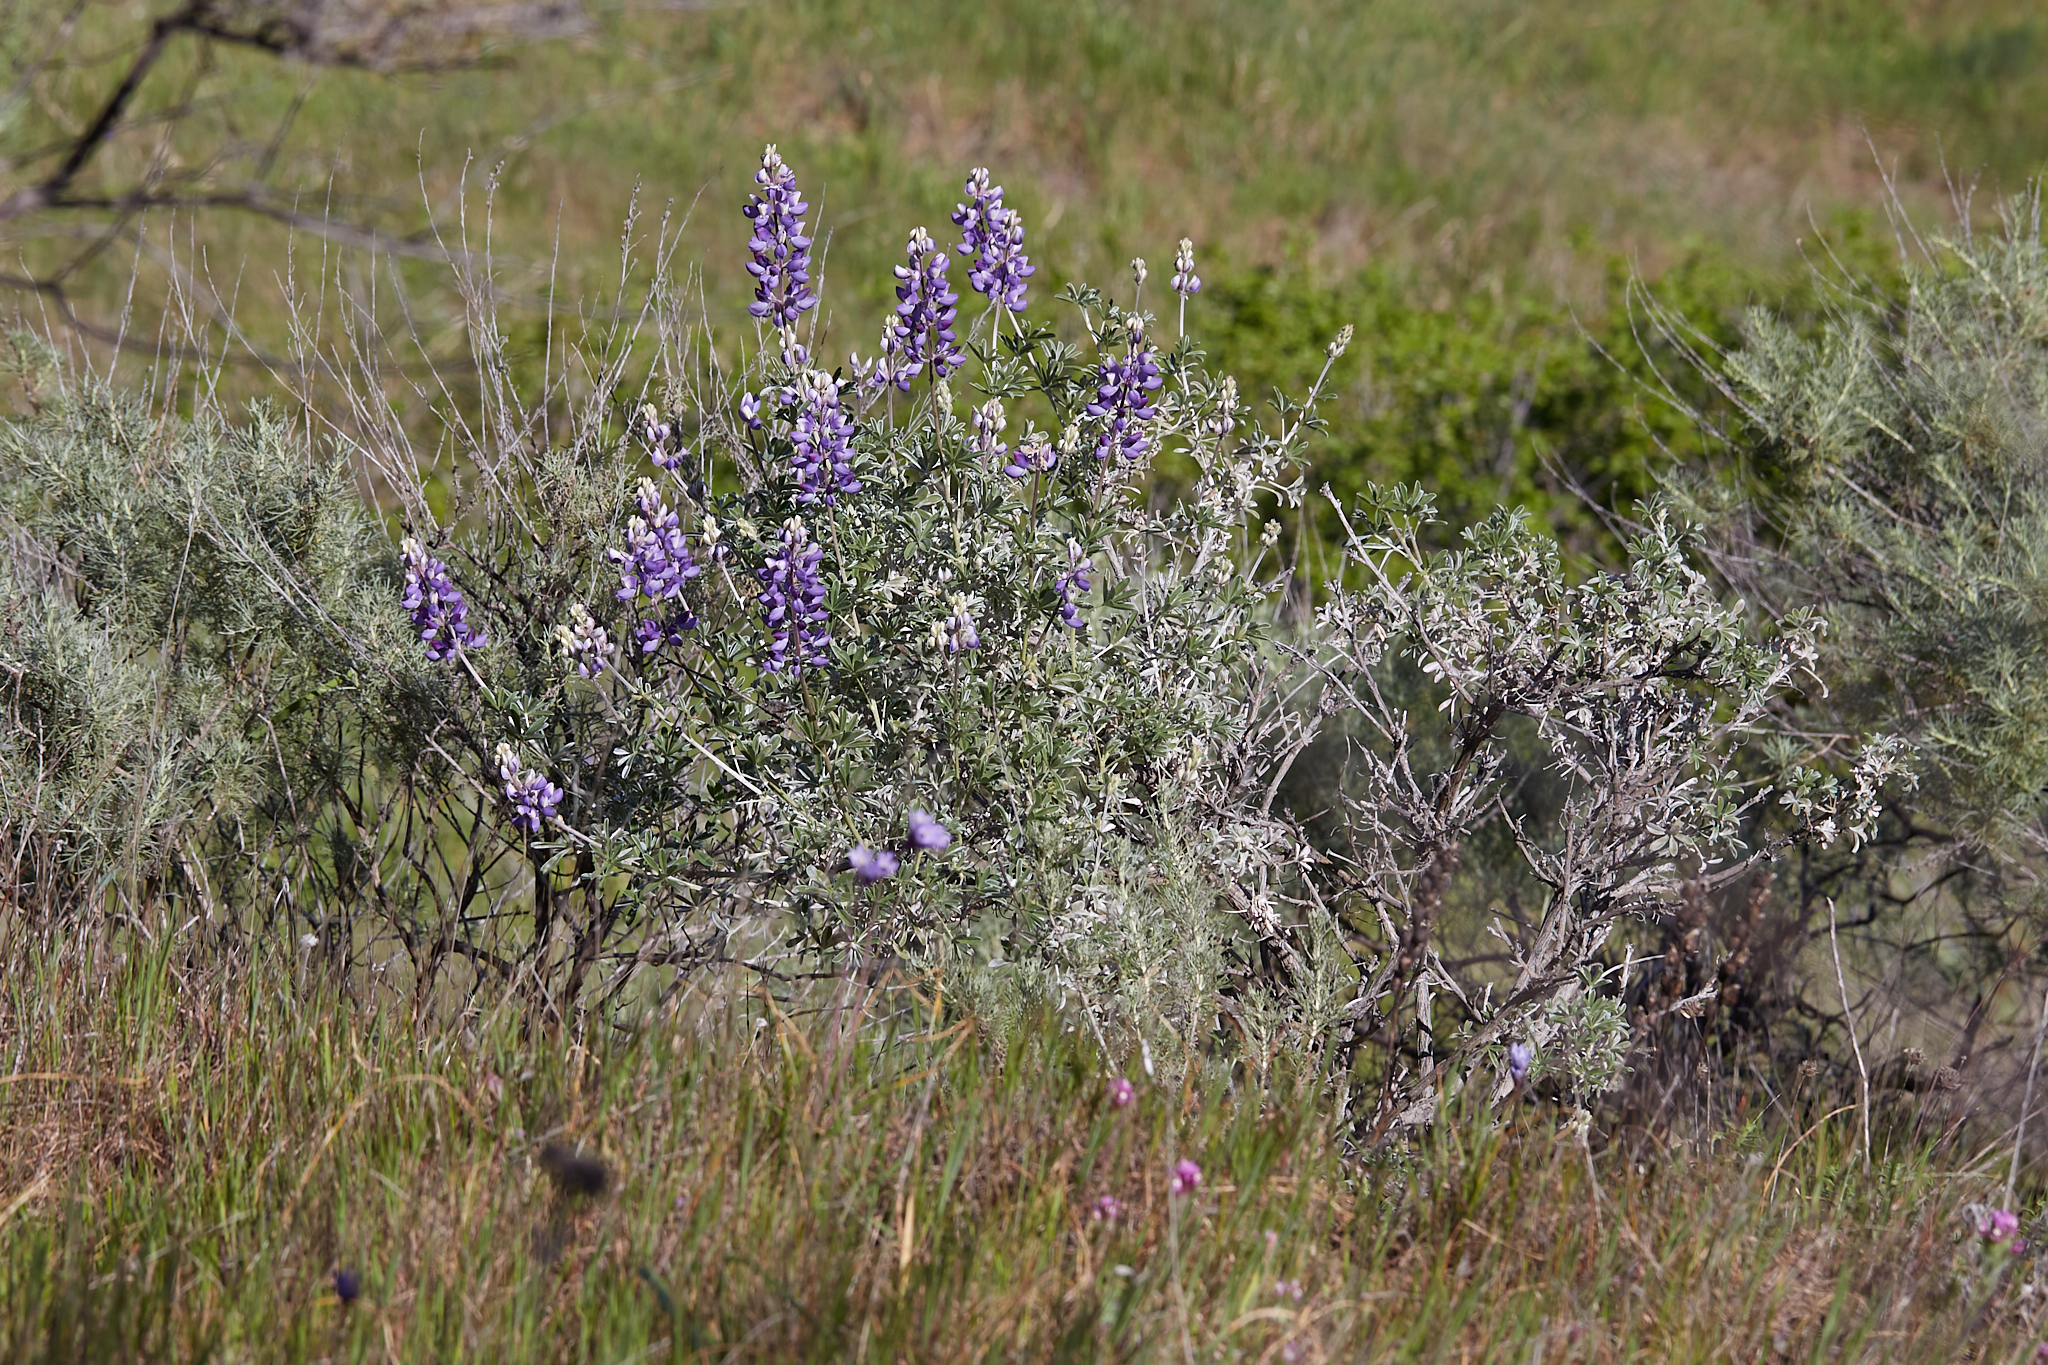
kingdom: Plantae
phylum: Tracheophyta
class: Magnoliopsida
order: Fabales
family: Fabaceae
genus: Lupinus
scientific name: Lupinus albifrons
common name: Foothill lupine
